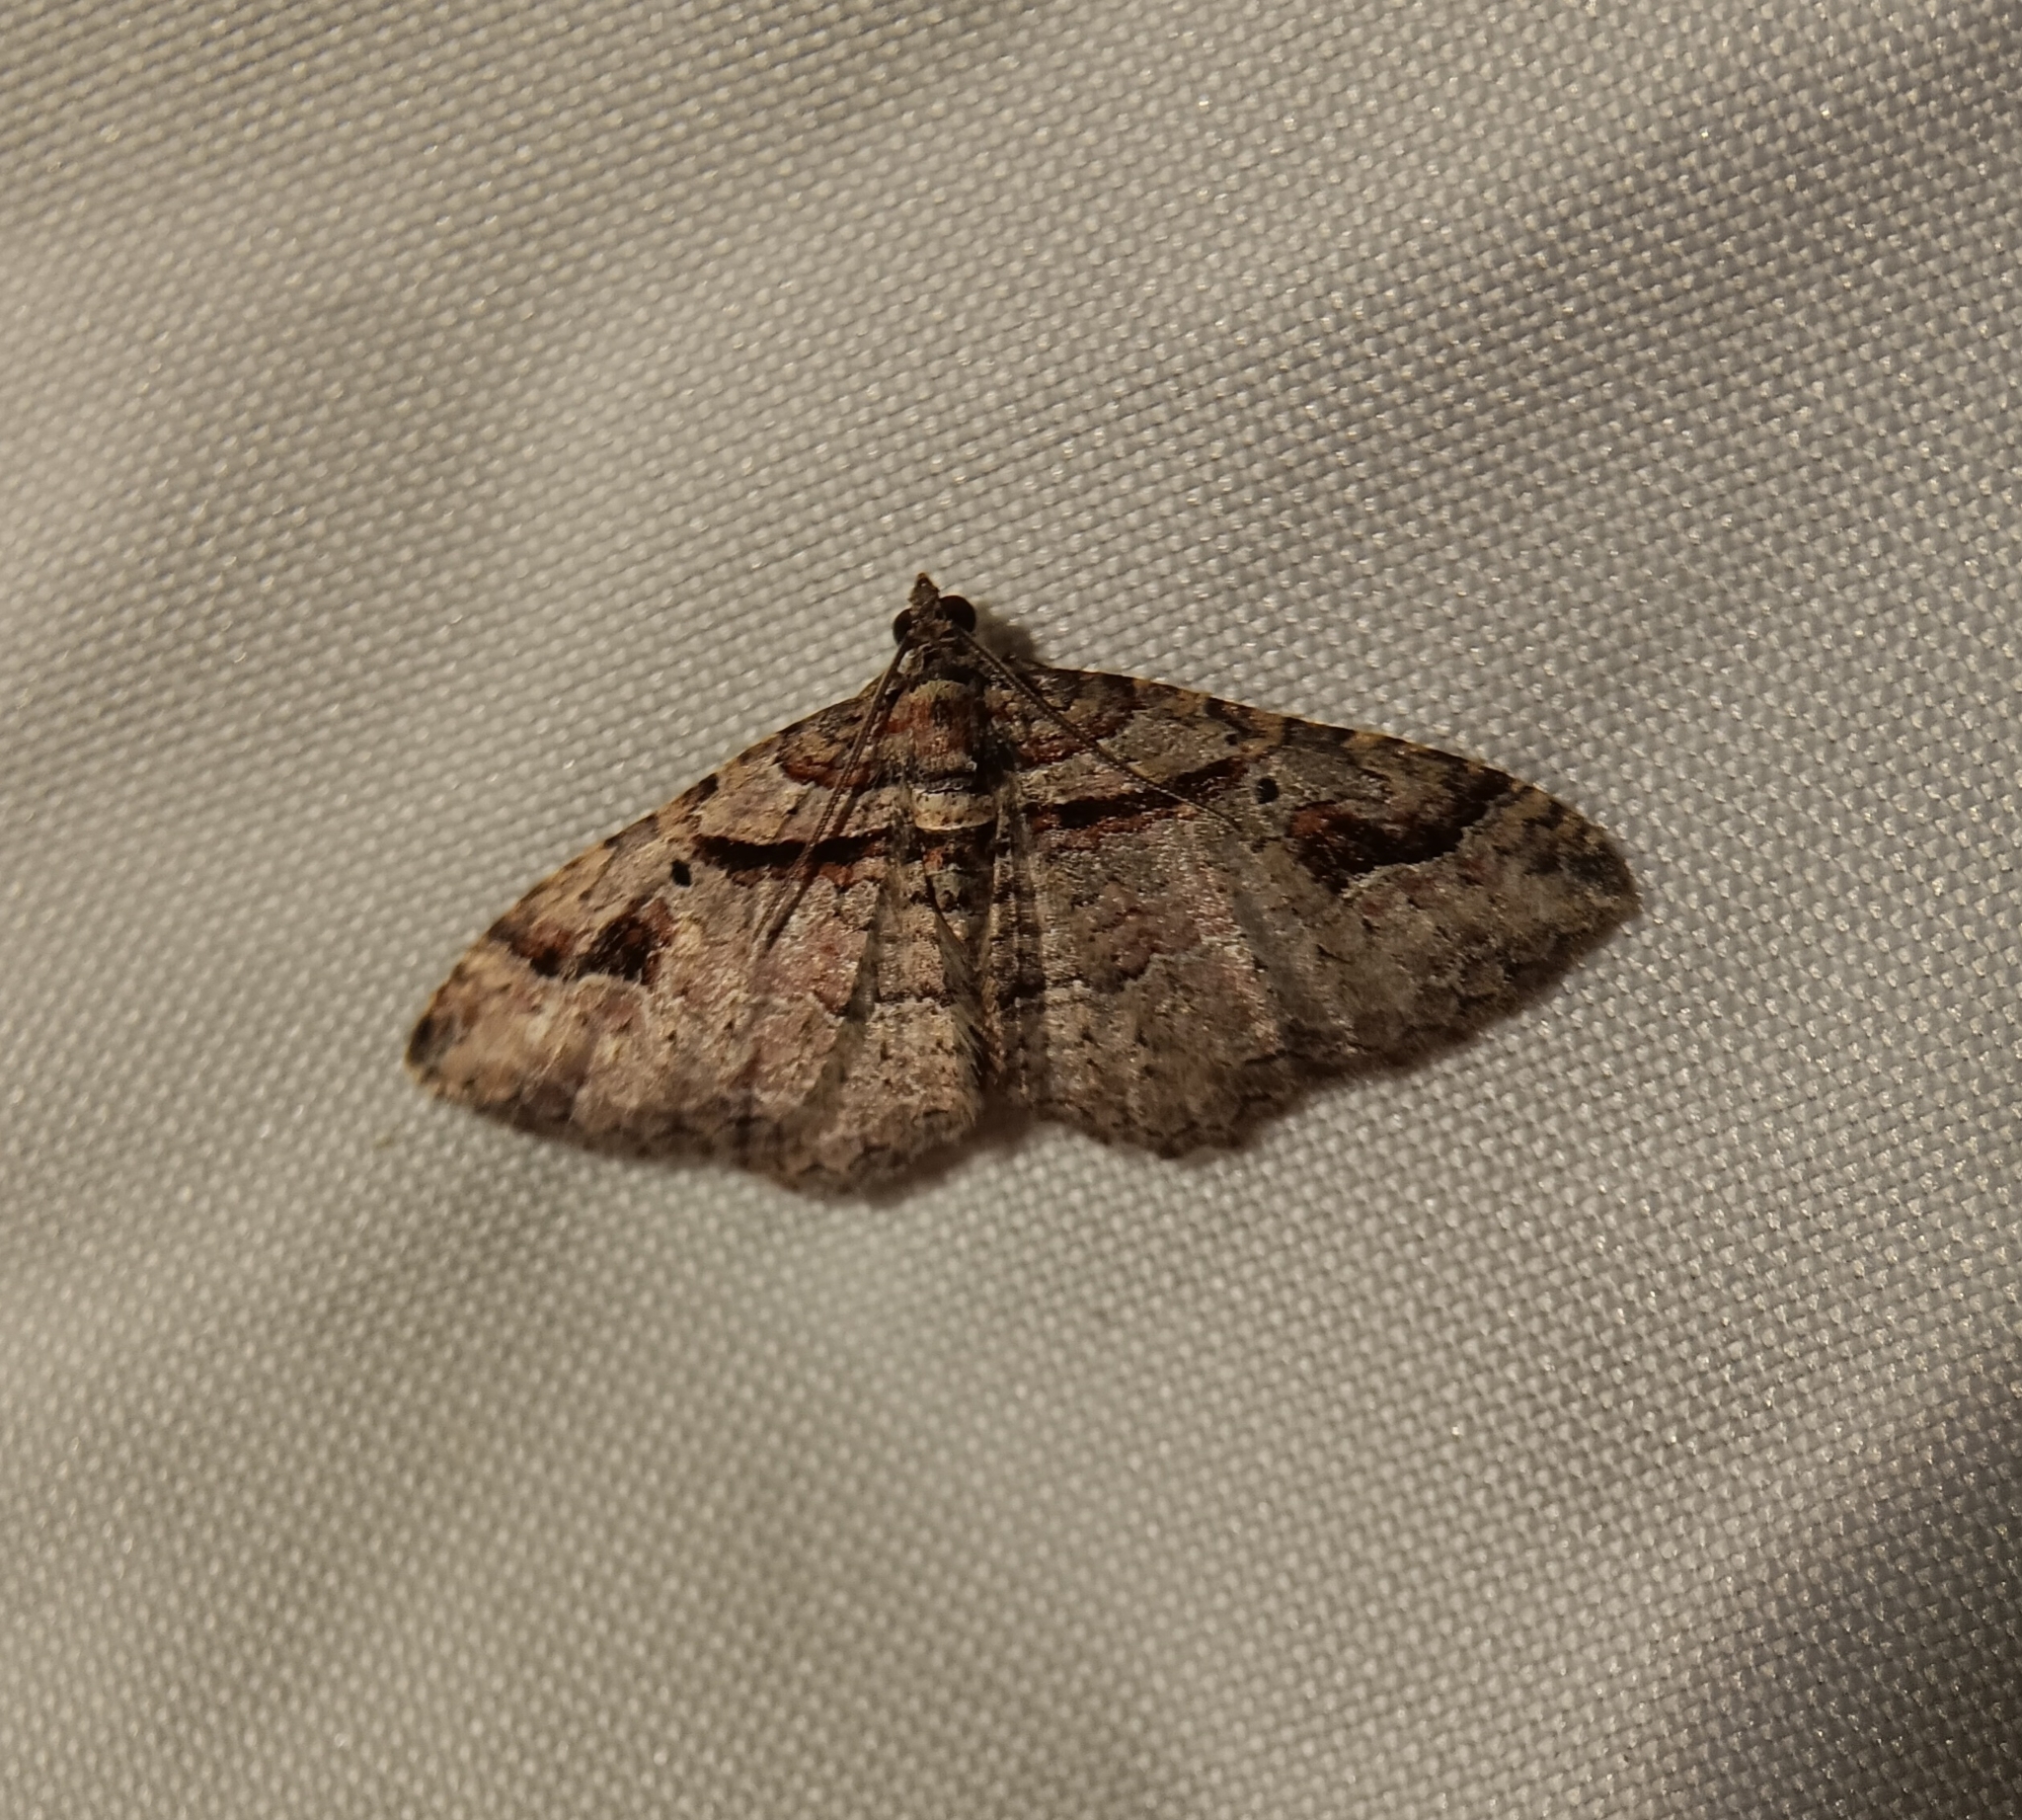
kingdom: Animalia
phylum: Arthropoda
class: Insecta
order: Lepidoptera
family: Geometridae
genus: Costaconvexa
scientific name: Costaconvexa centrostrigaria
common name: Bent-line carpet
